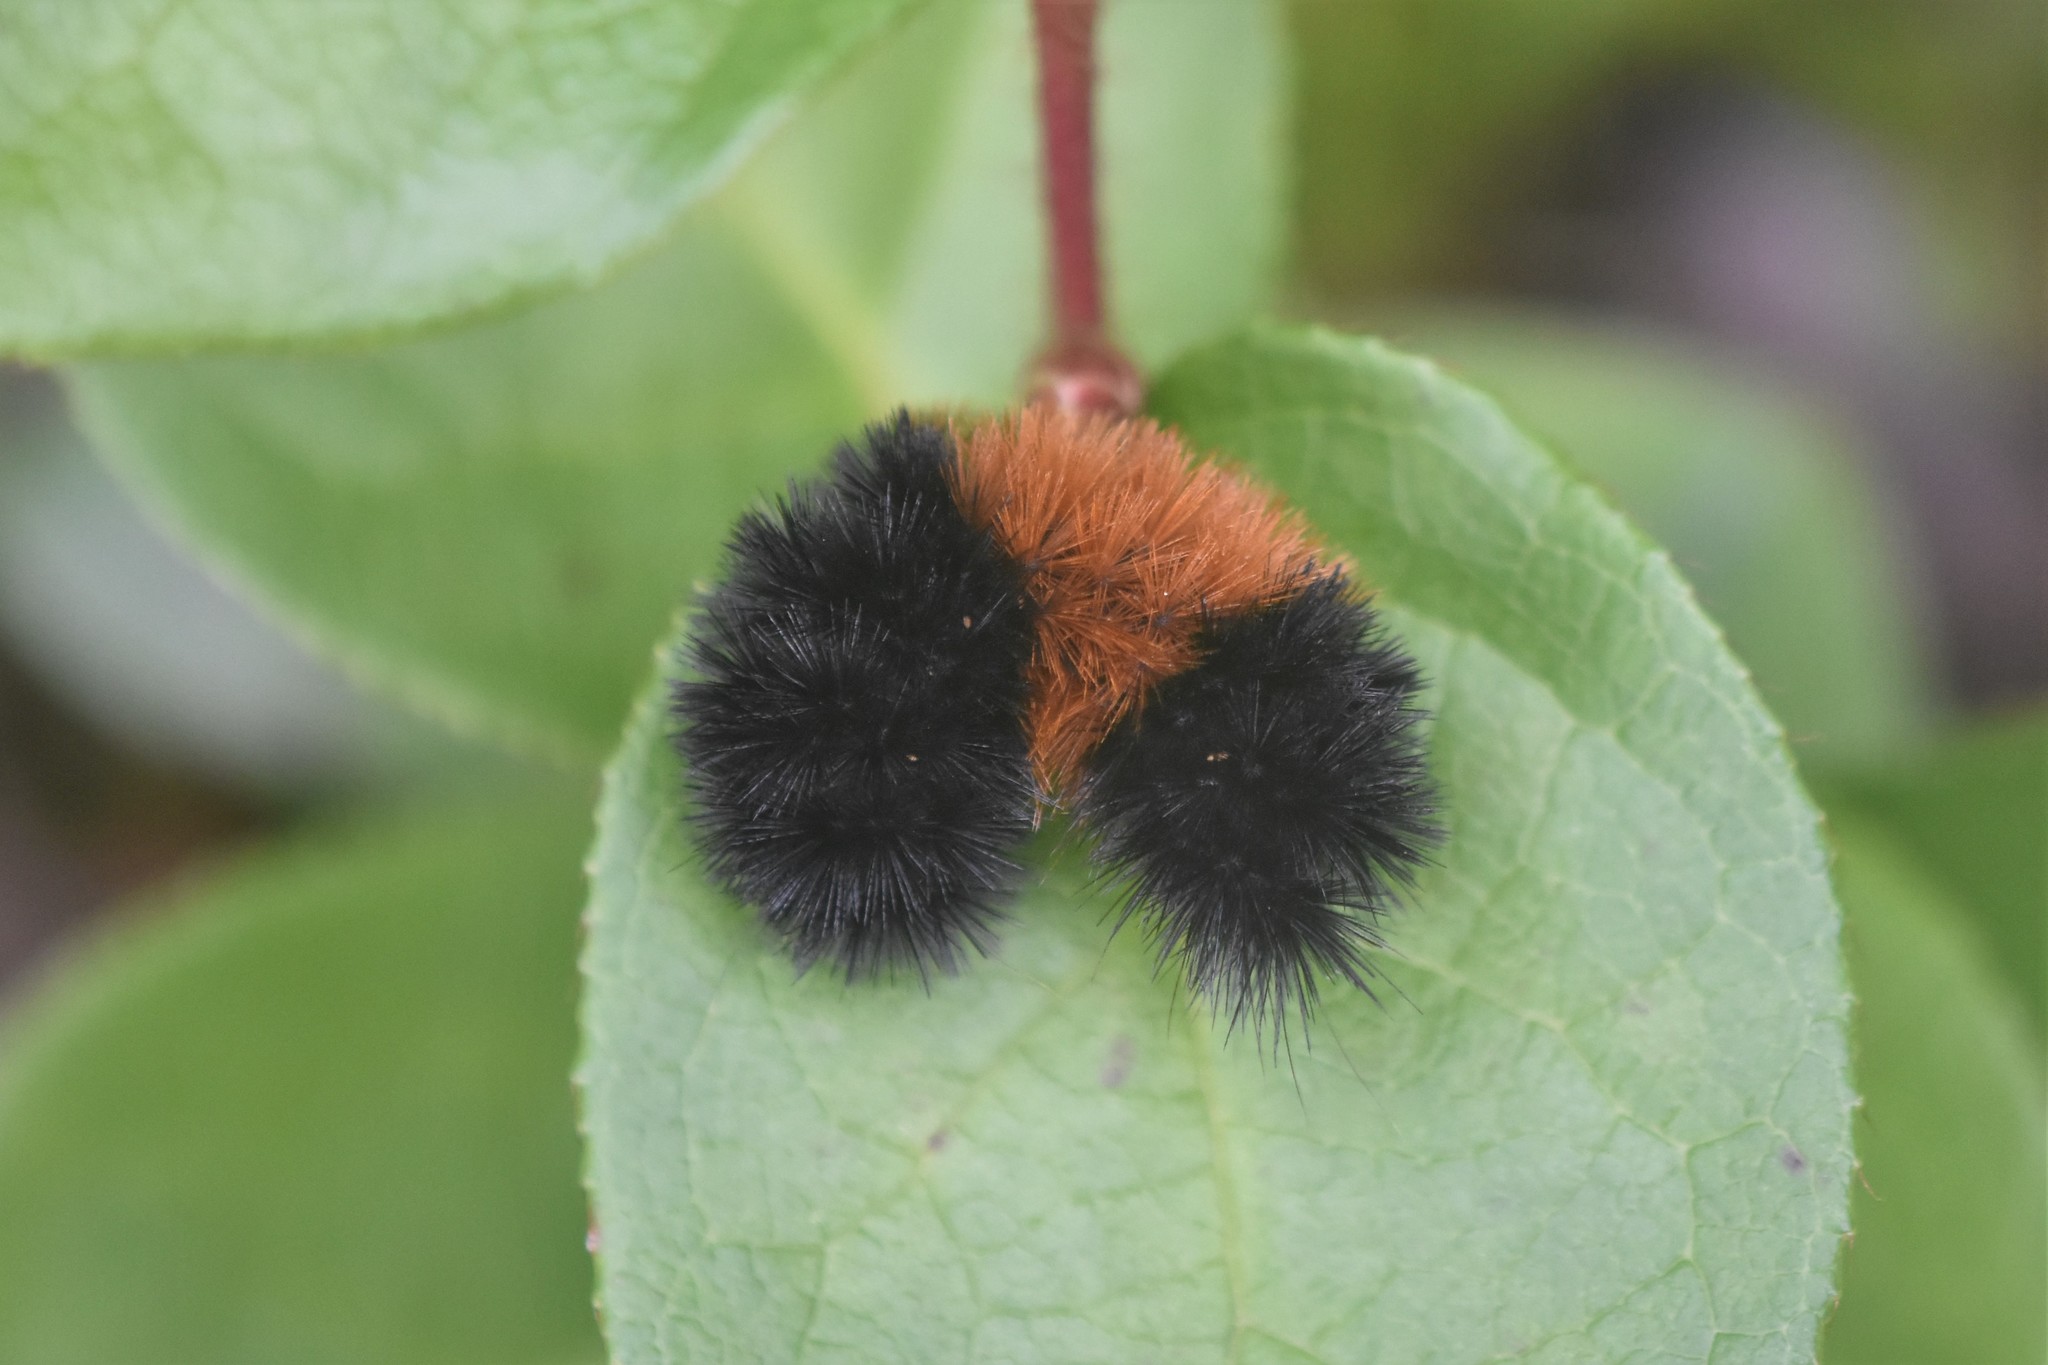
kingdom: Animalia
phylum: Arthropoda
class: Insecta
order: Lepidoptera
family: Erebidae
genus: Pyrrharctia
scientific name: Pyrrharctia isabella
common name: Isabella tiger moth
